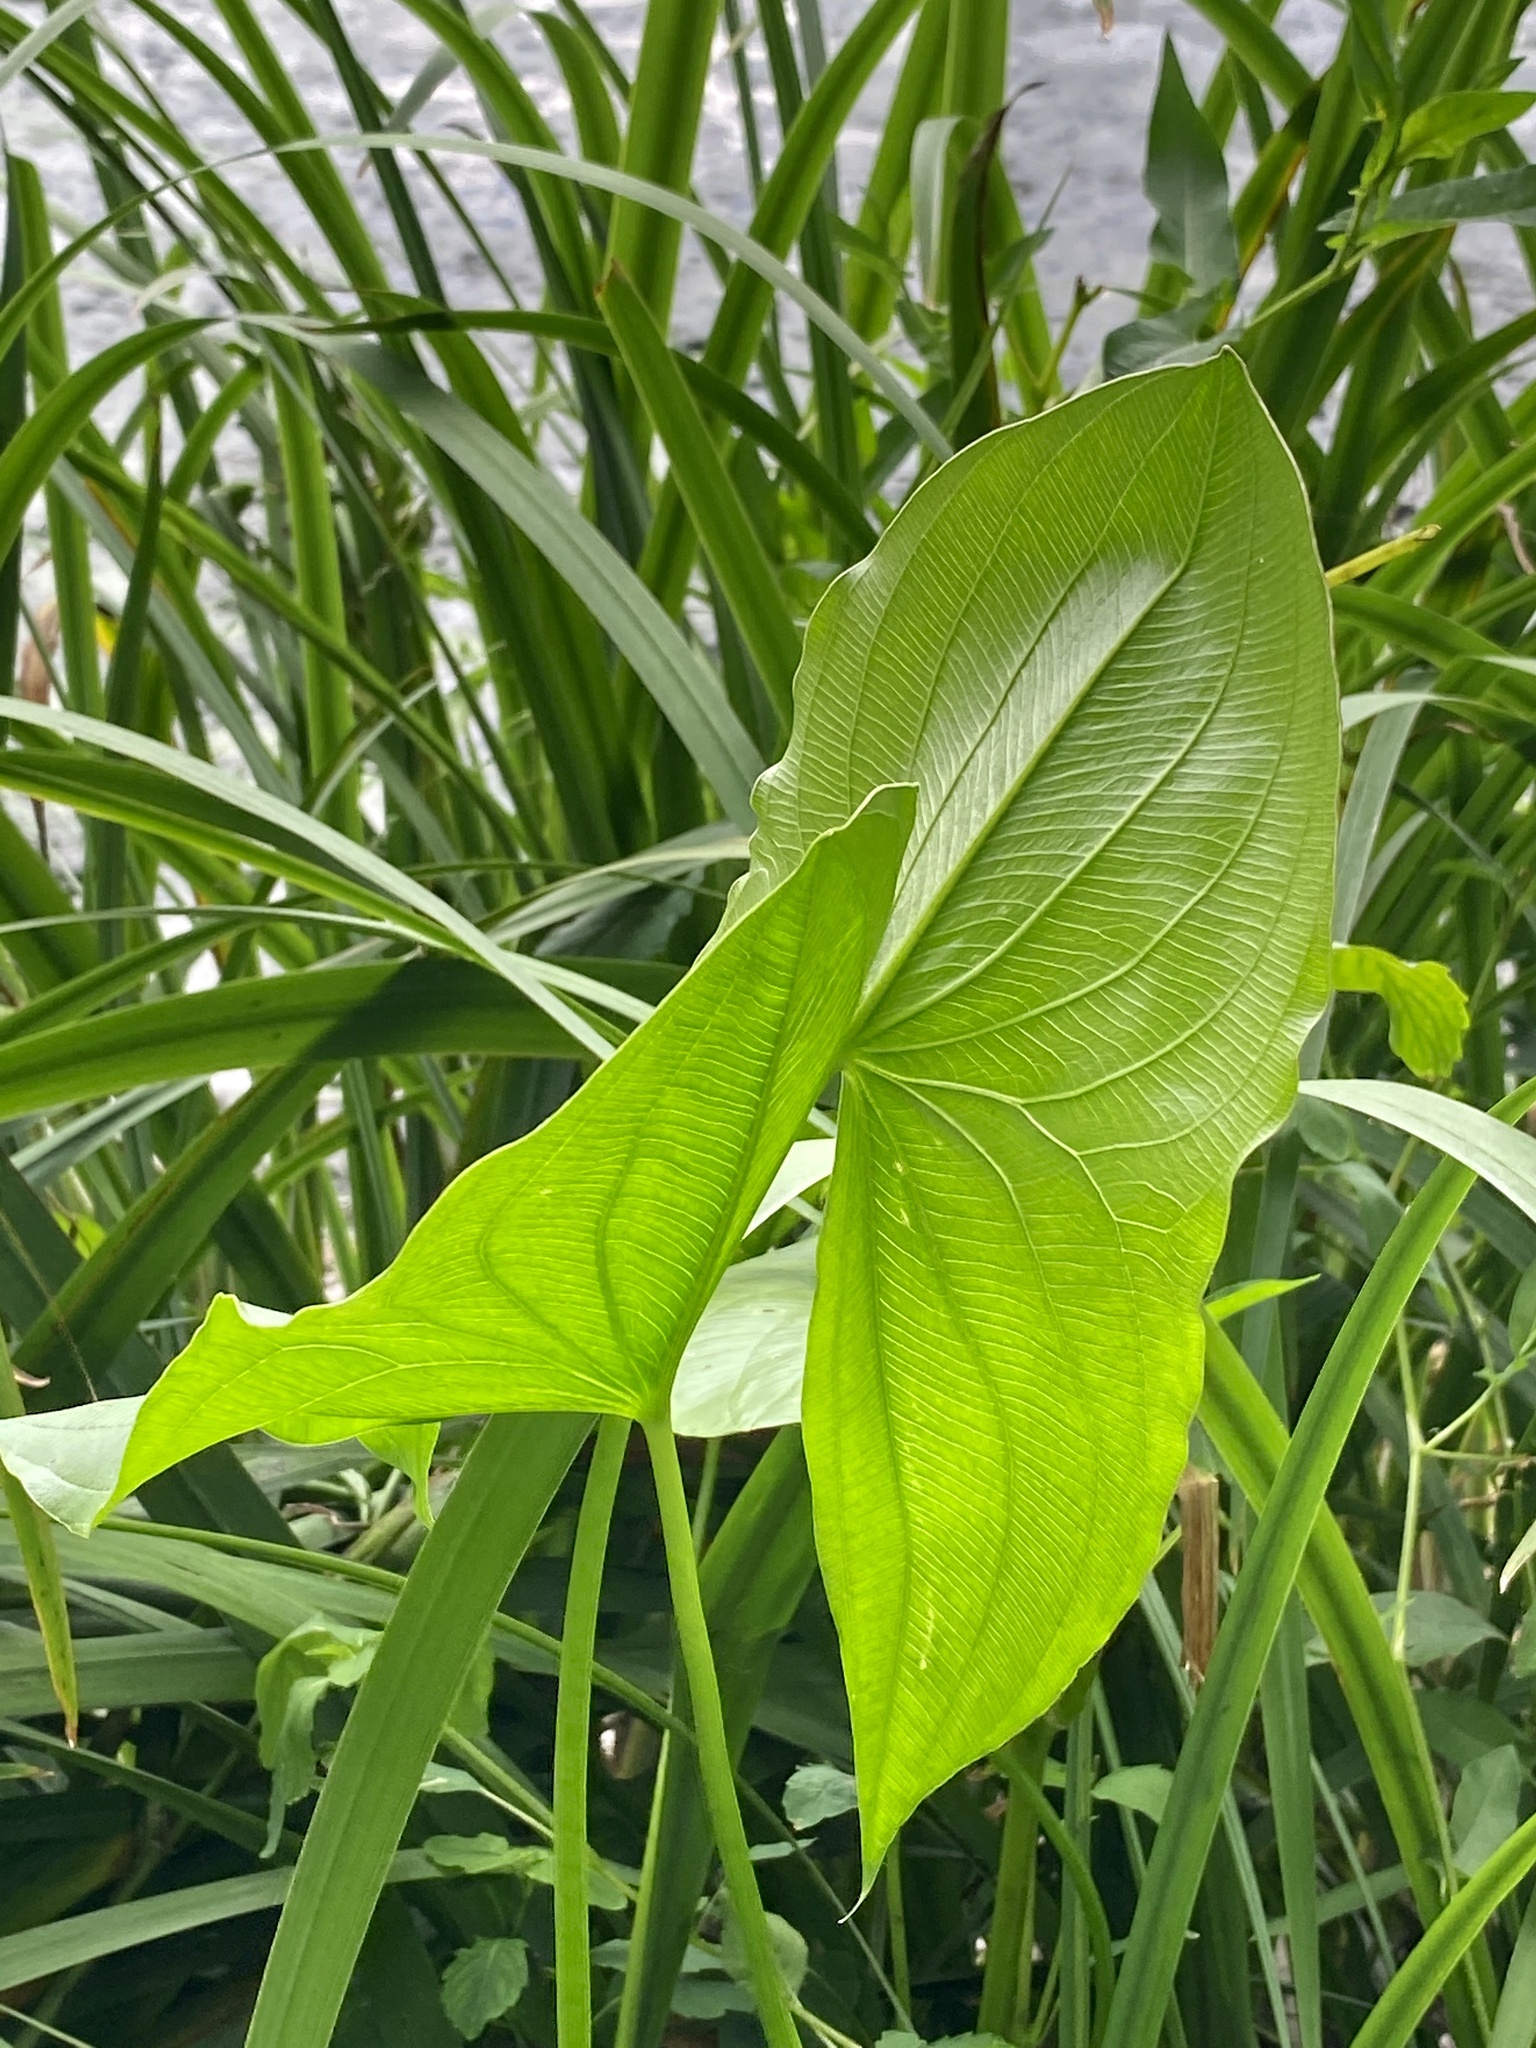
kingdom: Plantae
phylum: Tracheophyta
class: Liliopsida
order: Alismatales
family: Alismataceae
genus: Sagittaria
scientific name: Sagittaria latifolia
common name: Duck-potato
